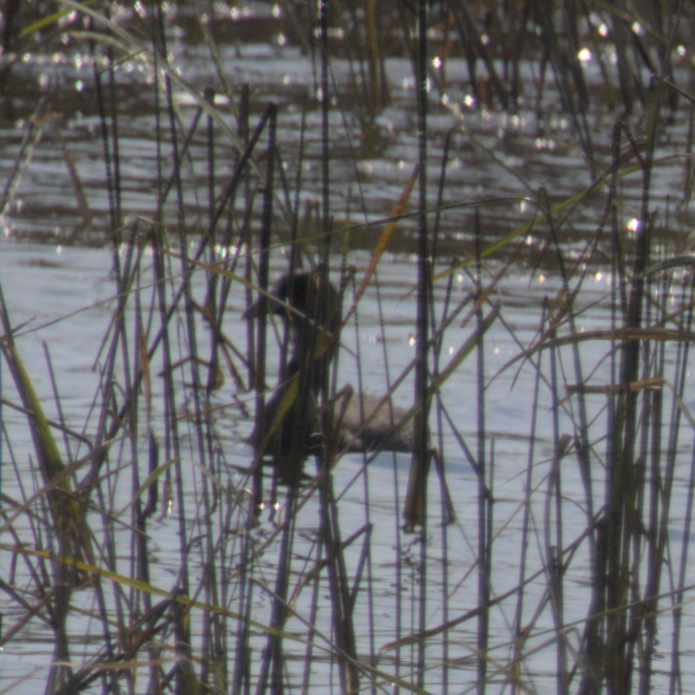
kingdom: Animalia
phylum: Chordata
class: Aves
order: Gruiformes
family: Rallidae
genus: Fulica
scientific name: Fulica americana
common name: American coot
